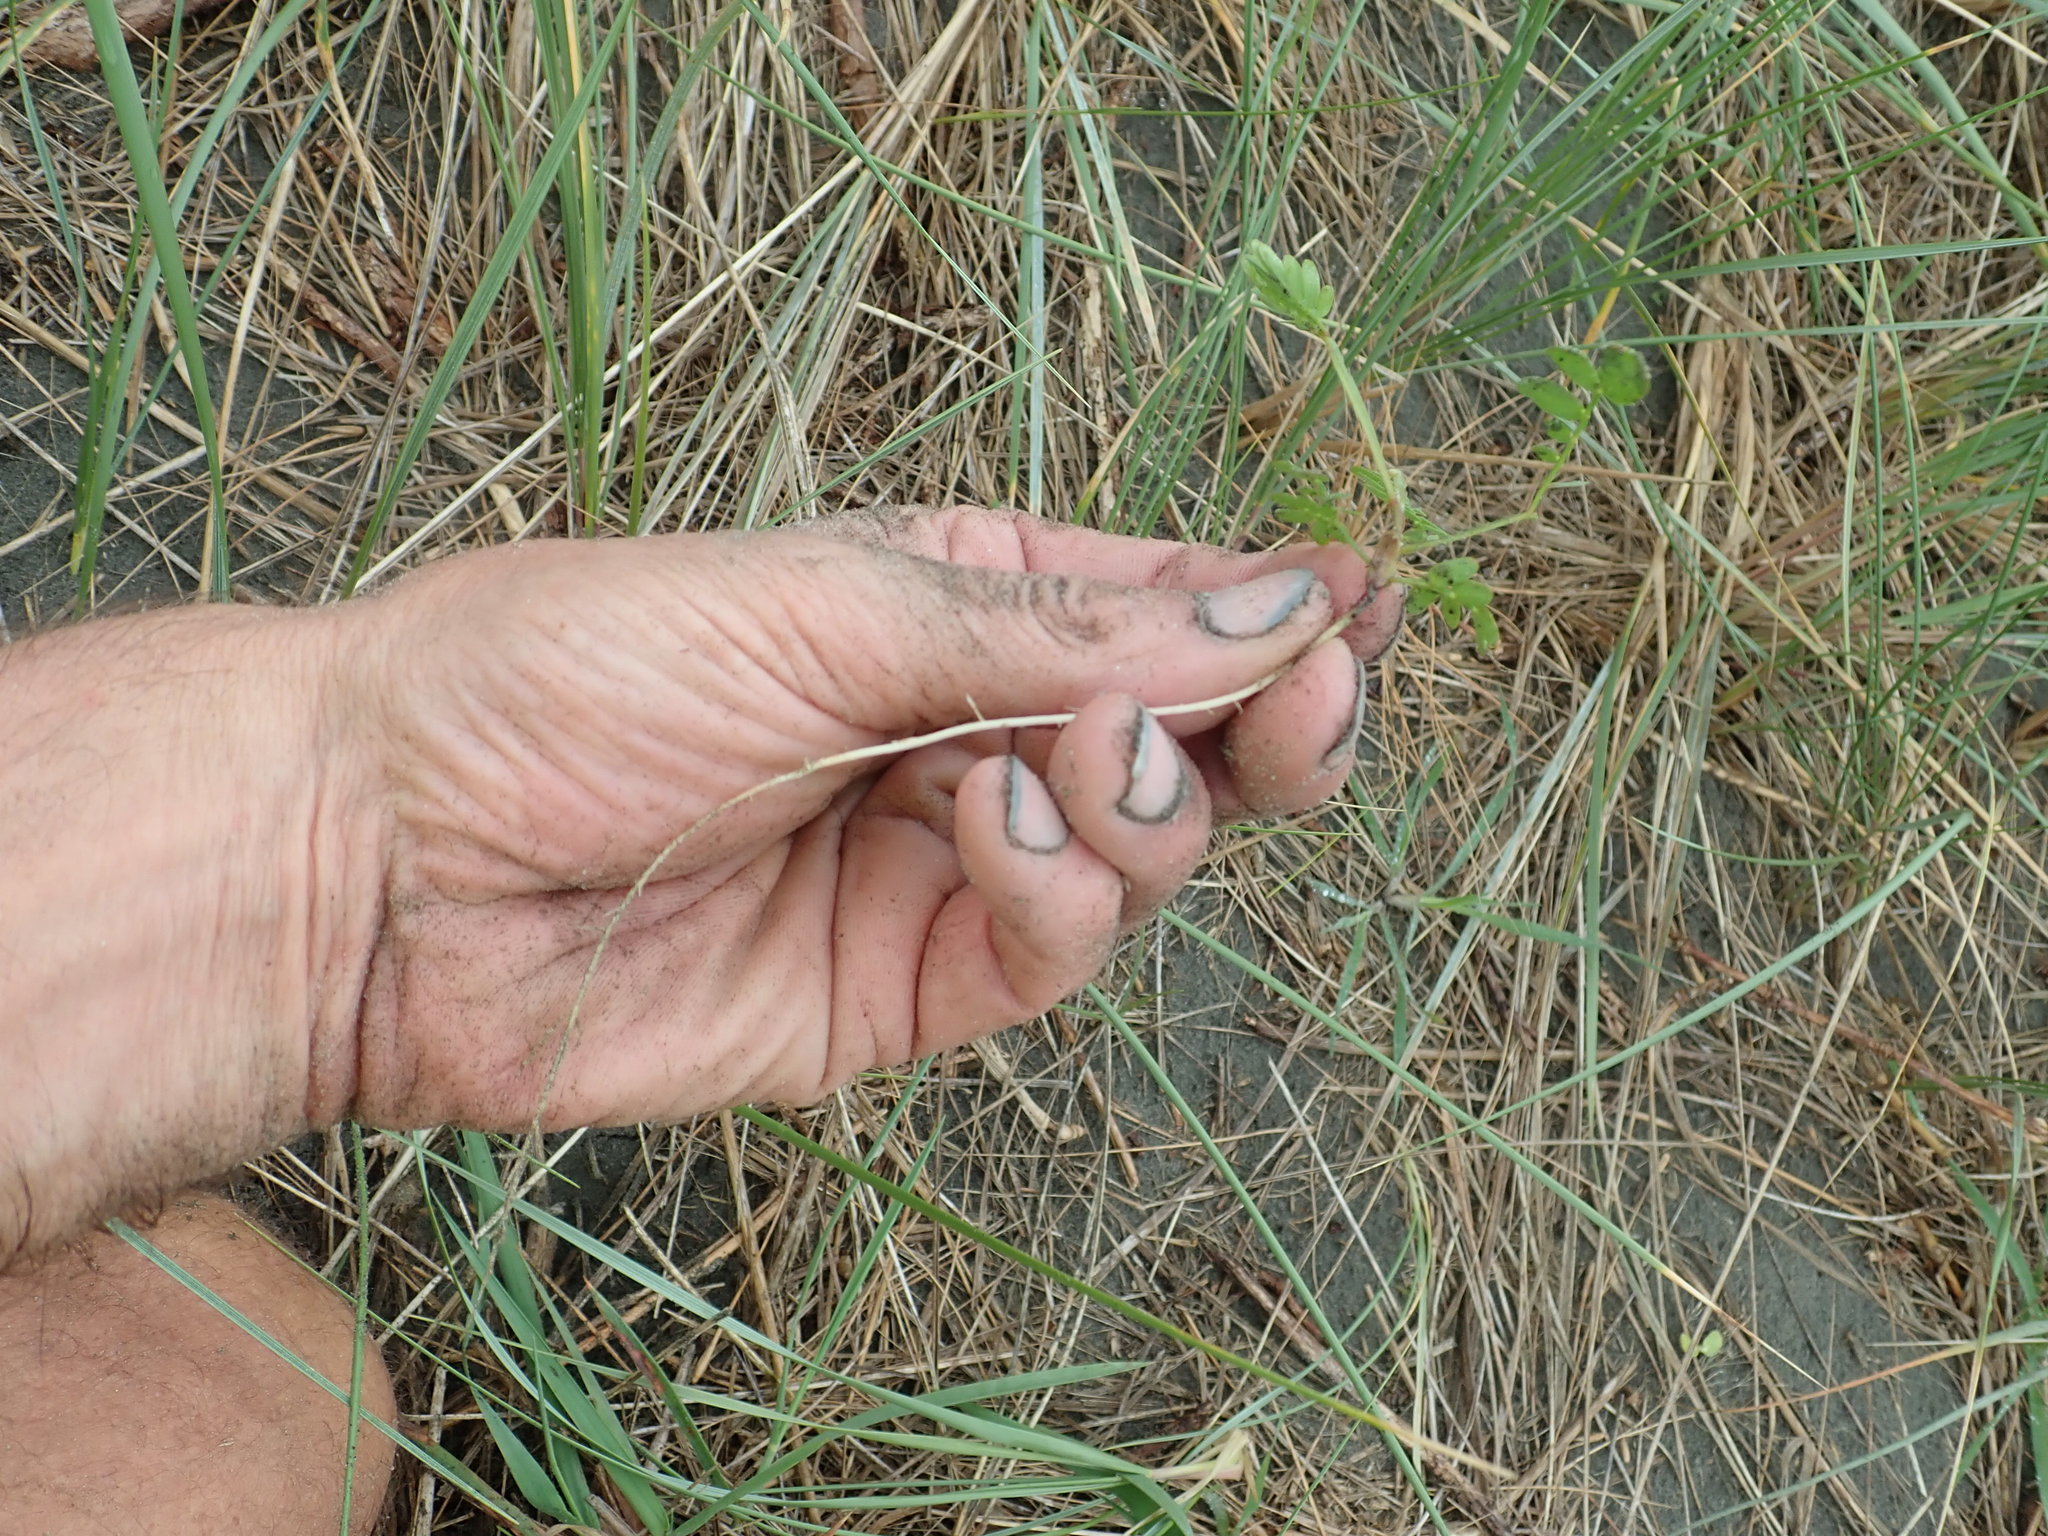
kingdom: Plantae
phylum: Tracheophyta
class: Magnoliopsida
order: Fabales
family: Fabaceae
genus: Acacia
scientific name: Acacia longifolia
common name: Sydney golden wattle
